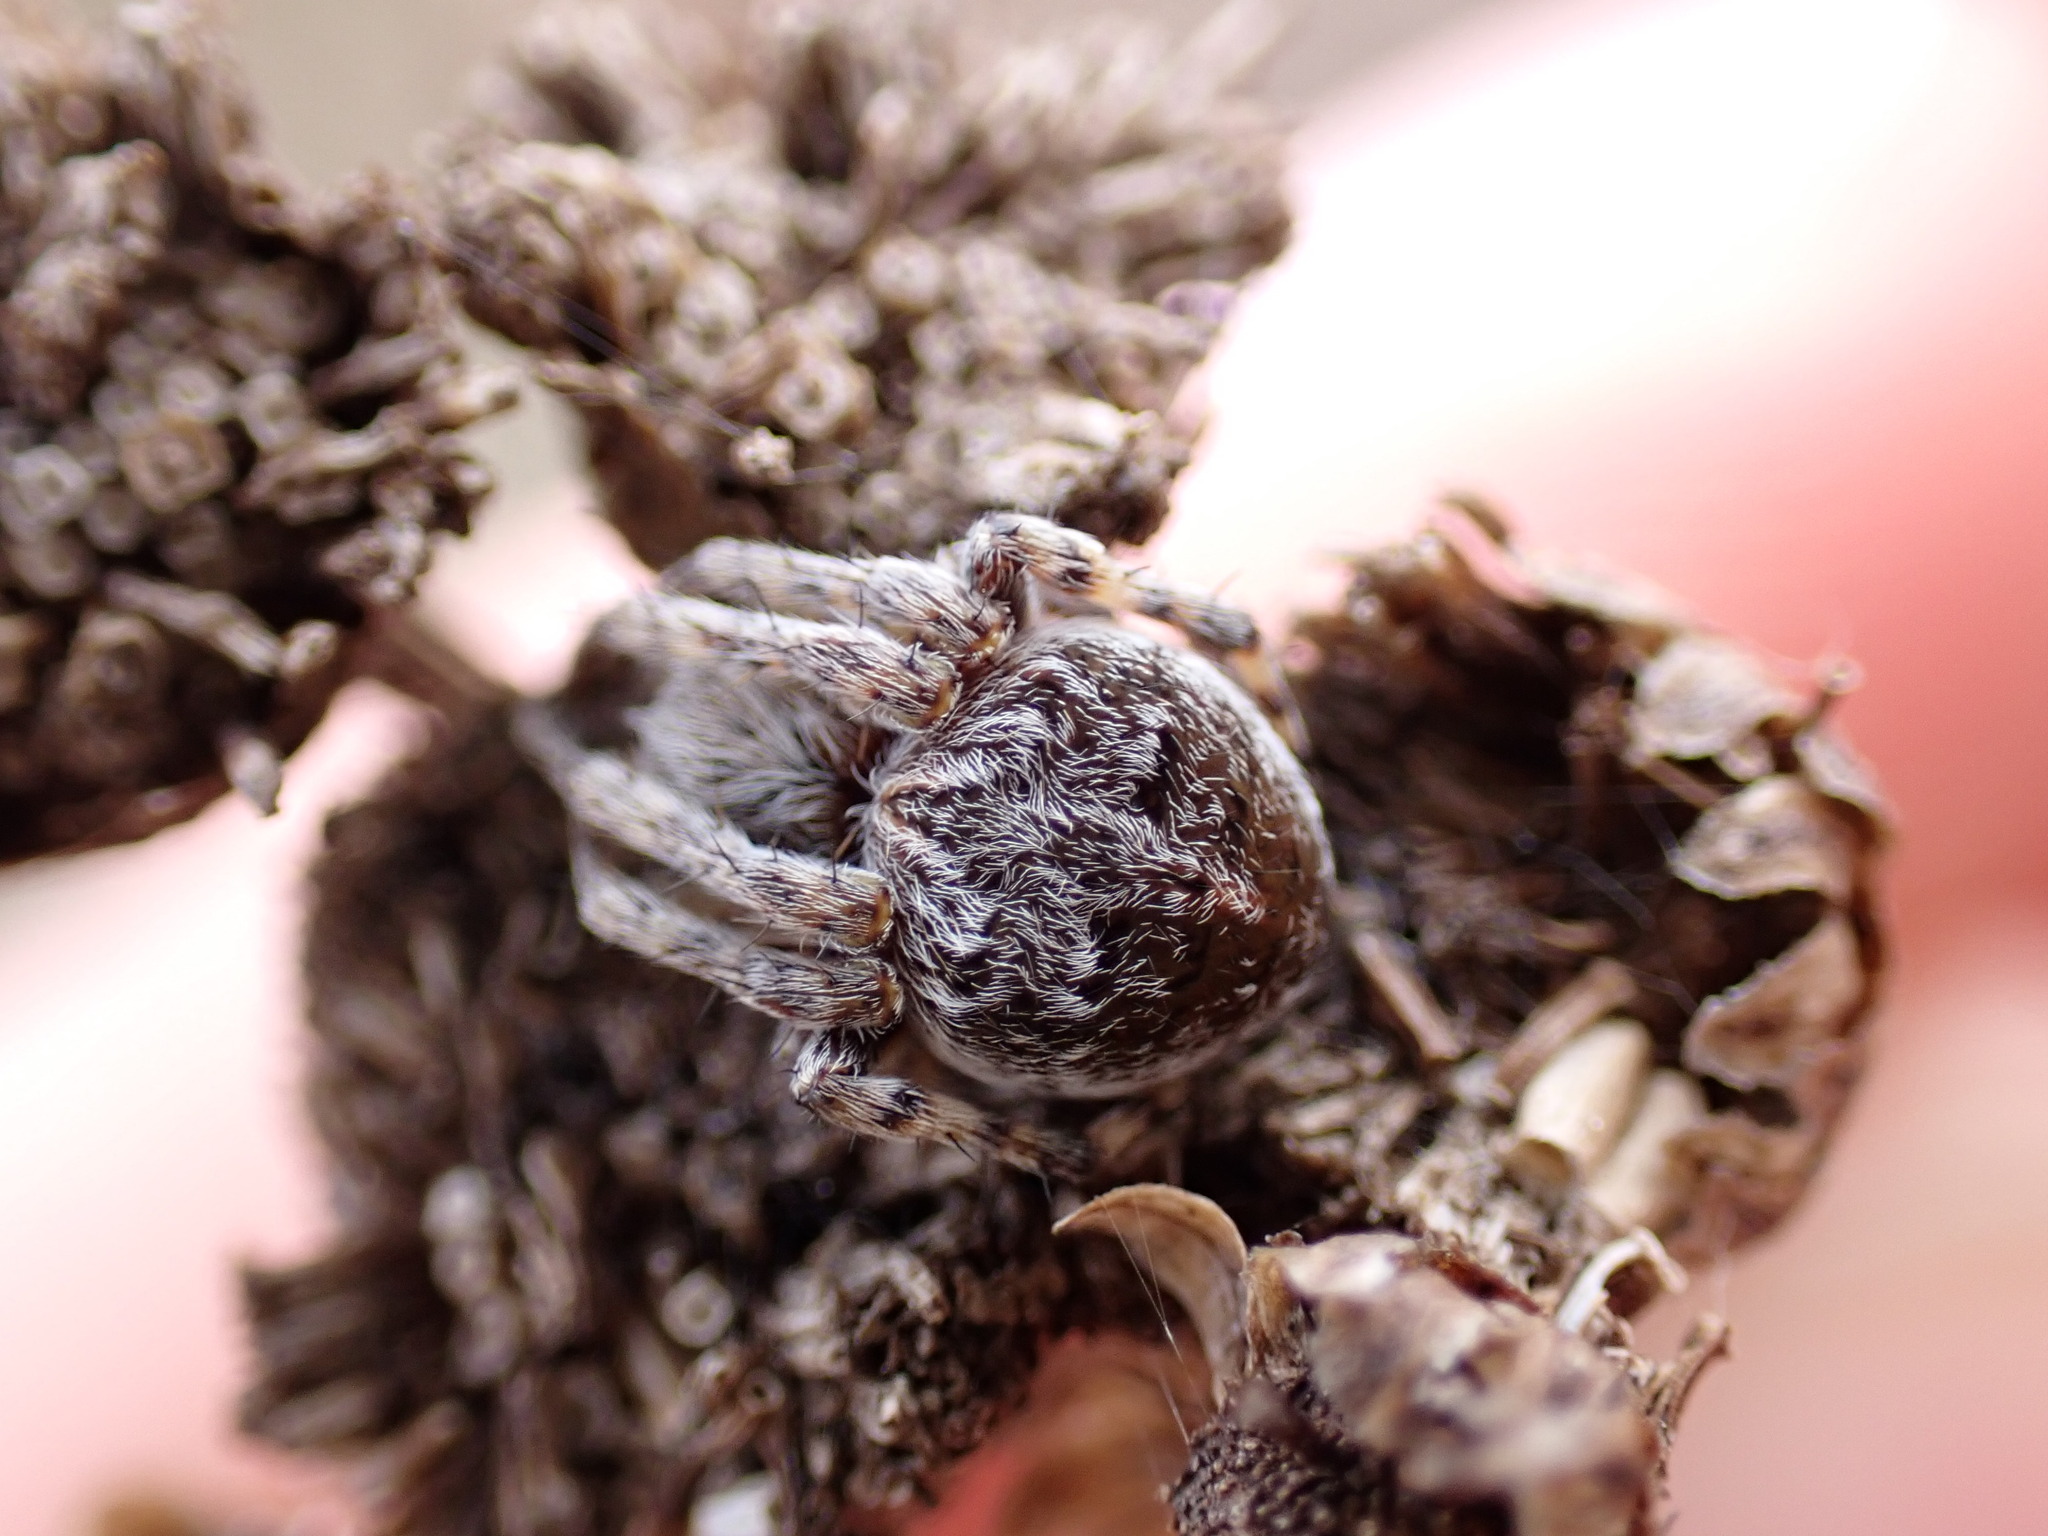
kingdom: Animalia
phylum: Arthropoda
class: Arachnida
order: Araneae
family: Araneidae
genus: Agalenatea
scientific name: Agalenatea redii
